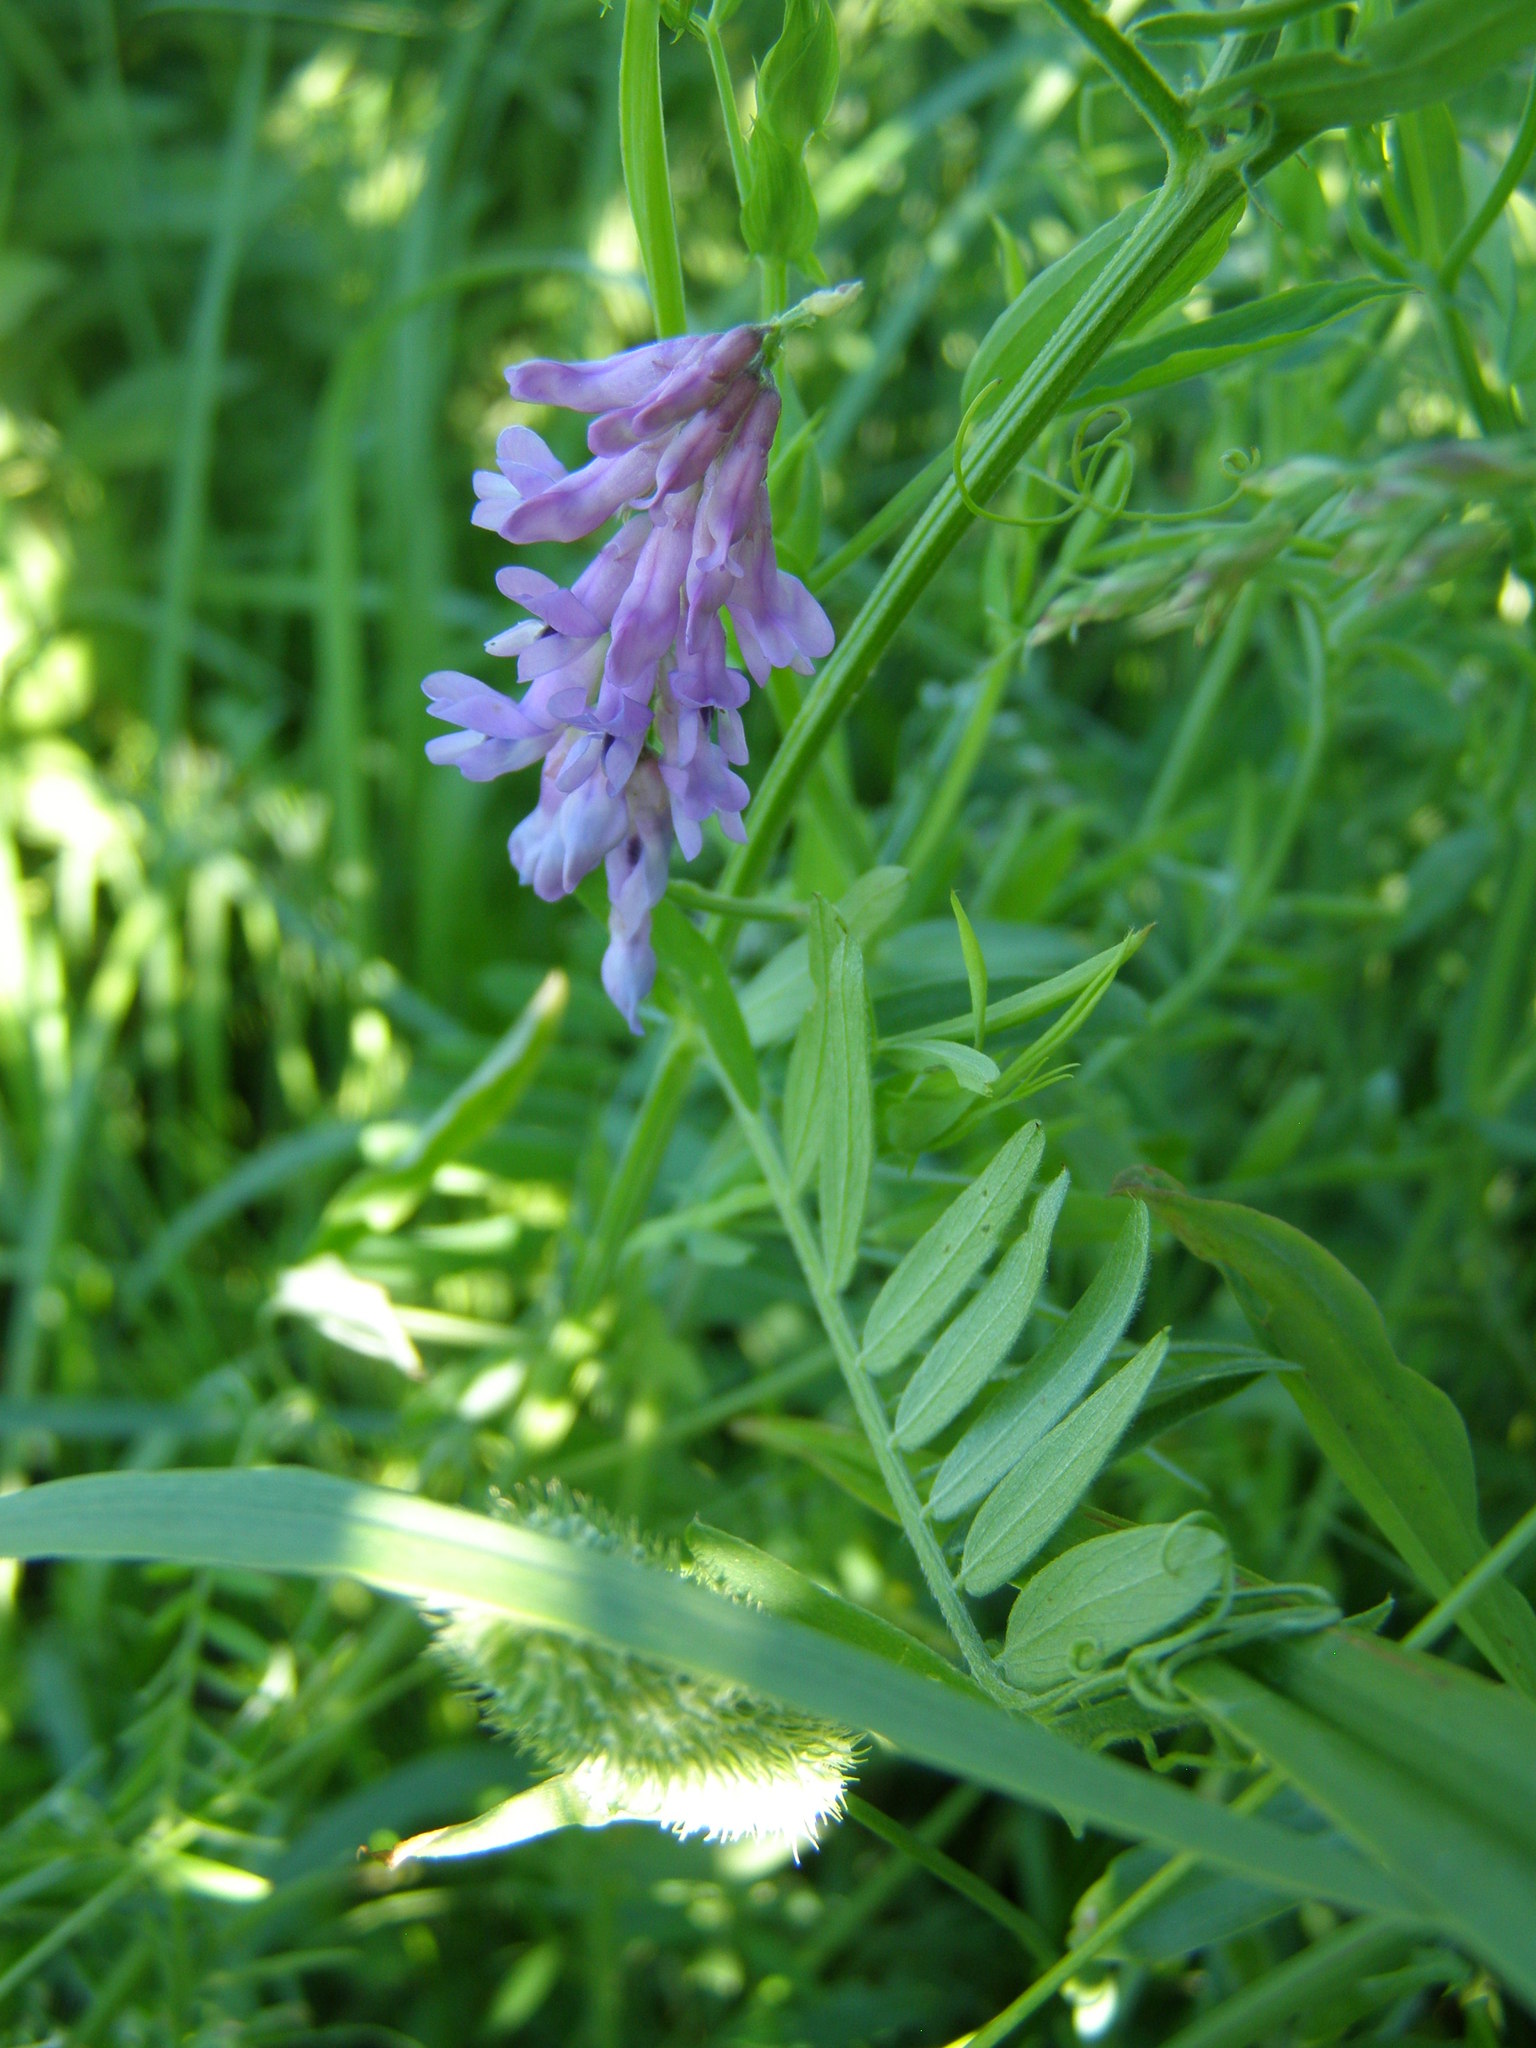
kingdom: Plantae
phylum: Tracheophyta
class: Magnoliopsida
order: Fabales
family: Fabaceae
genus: Vicia
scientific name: Vicia cracca
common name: Bird vetch
